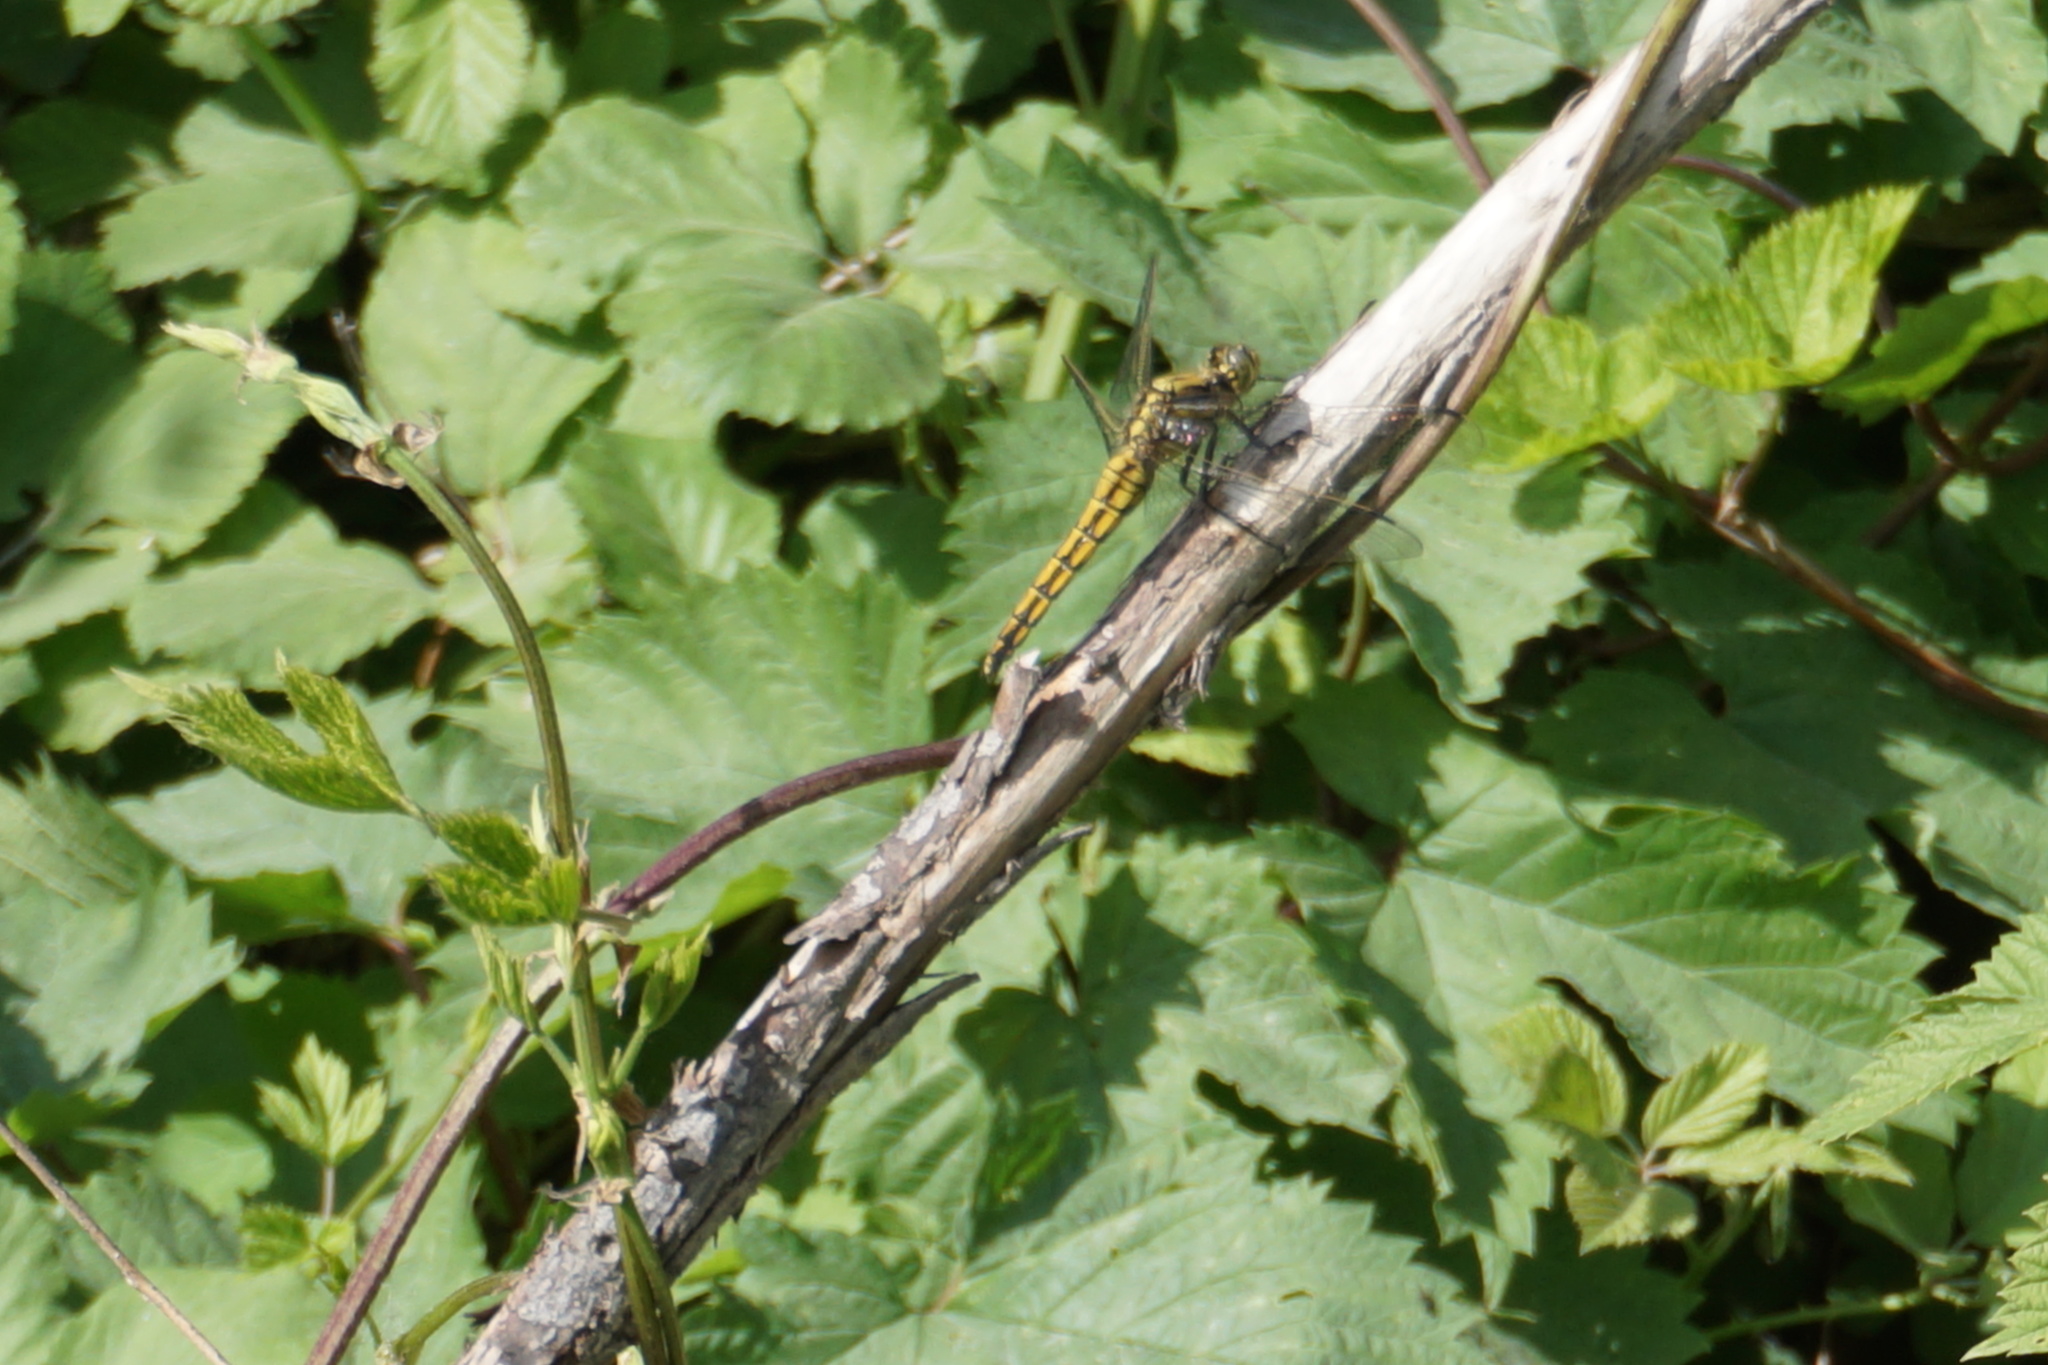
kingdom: Animalia
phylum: Arthropoda
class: Insecta
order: Odonata
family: Libellulidae
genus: Orthetrum
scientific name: Orthetrum cancellatum
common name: Black-tailed skimmer
